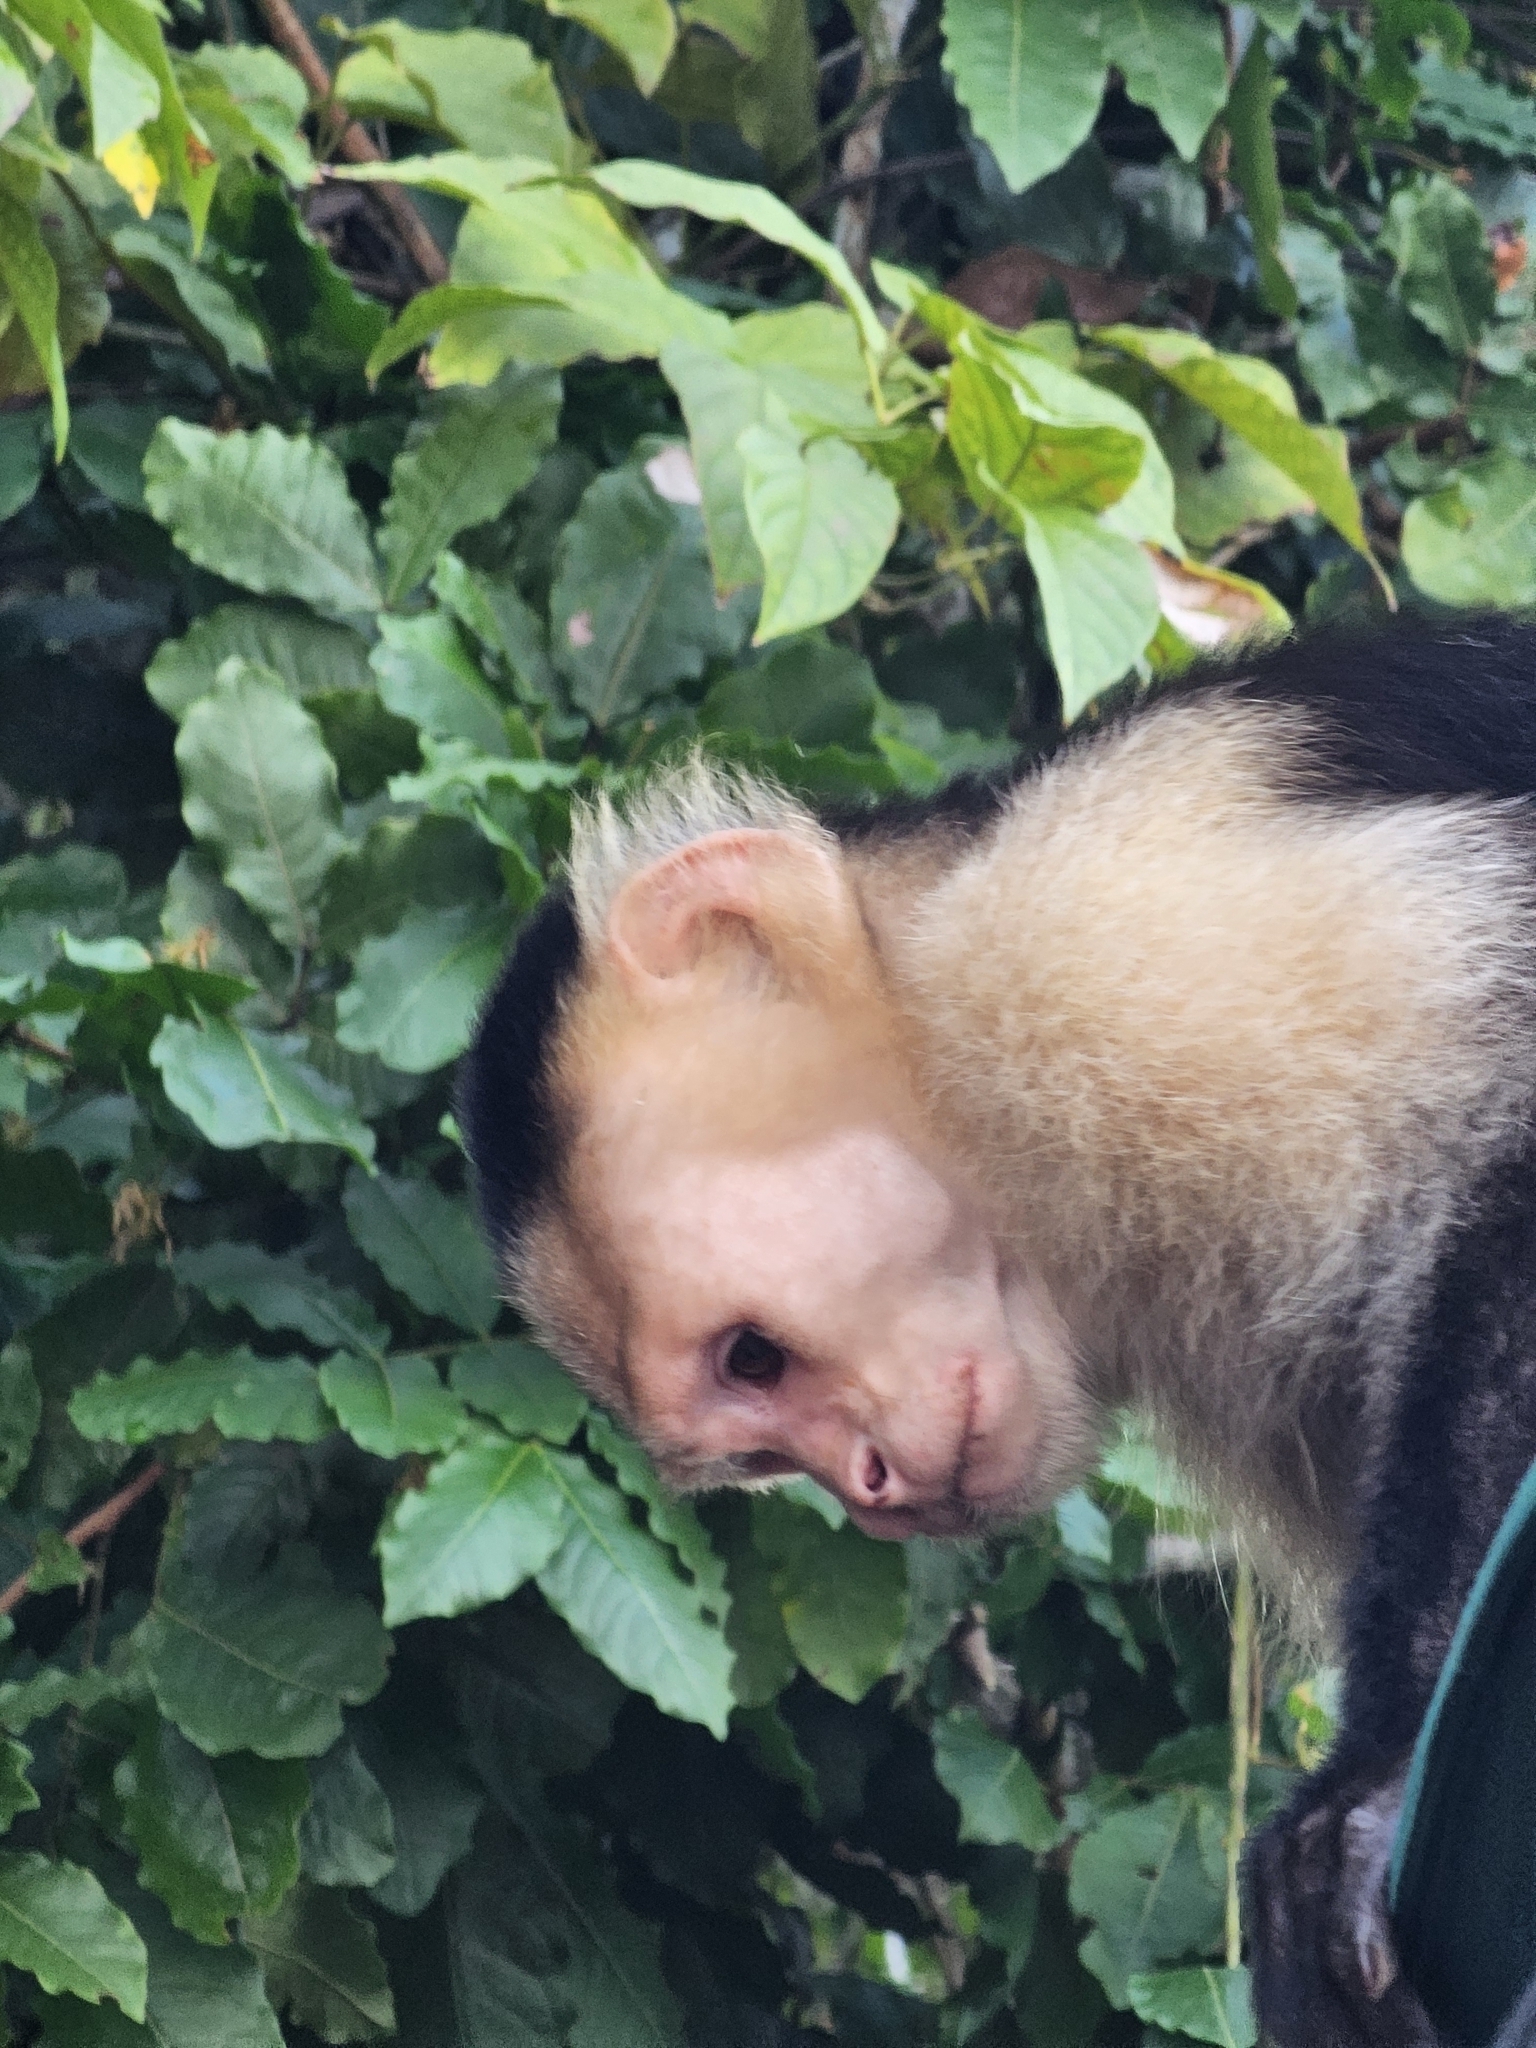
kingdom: Animalia
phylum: Chordata
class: Mammalia
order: Primates
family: Cebidae
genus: Cebus
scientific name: Cebus imitator
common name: Panamanian white-faced capuchin
